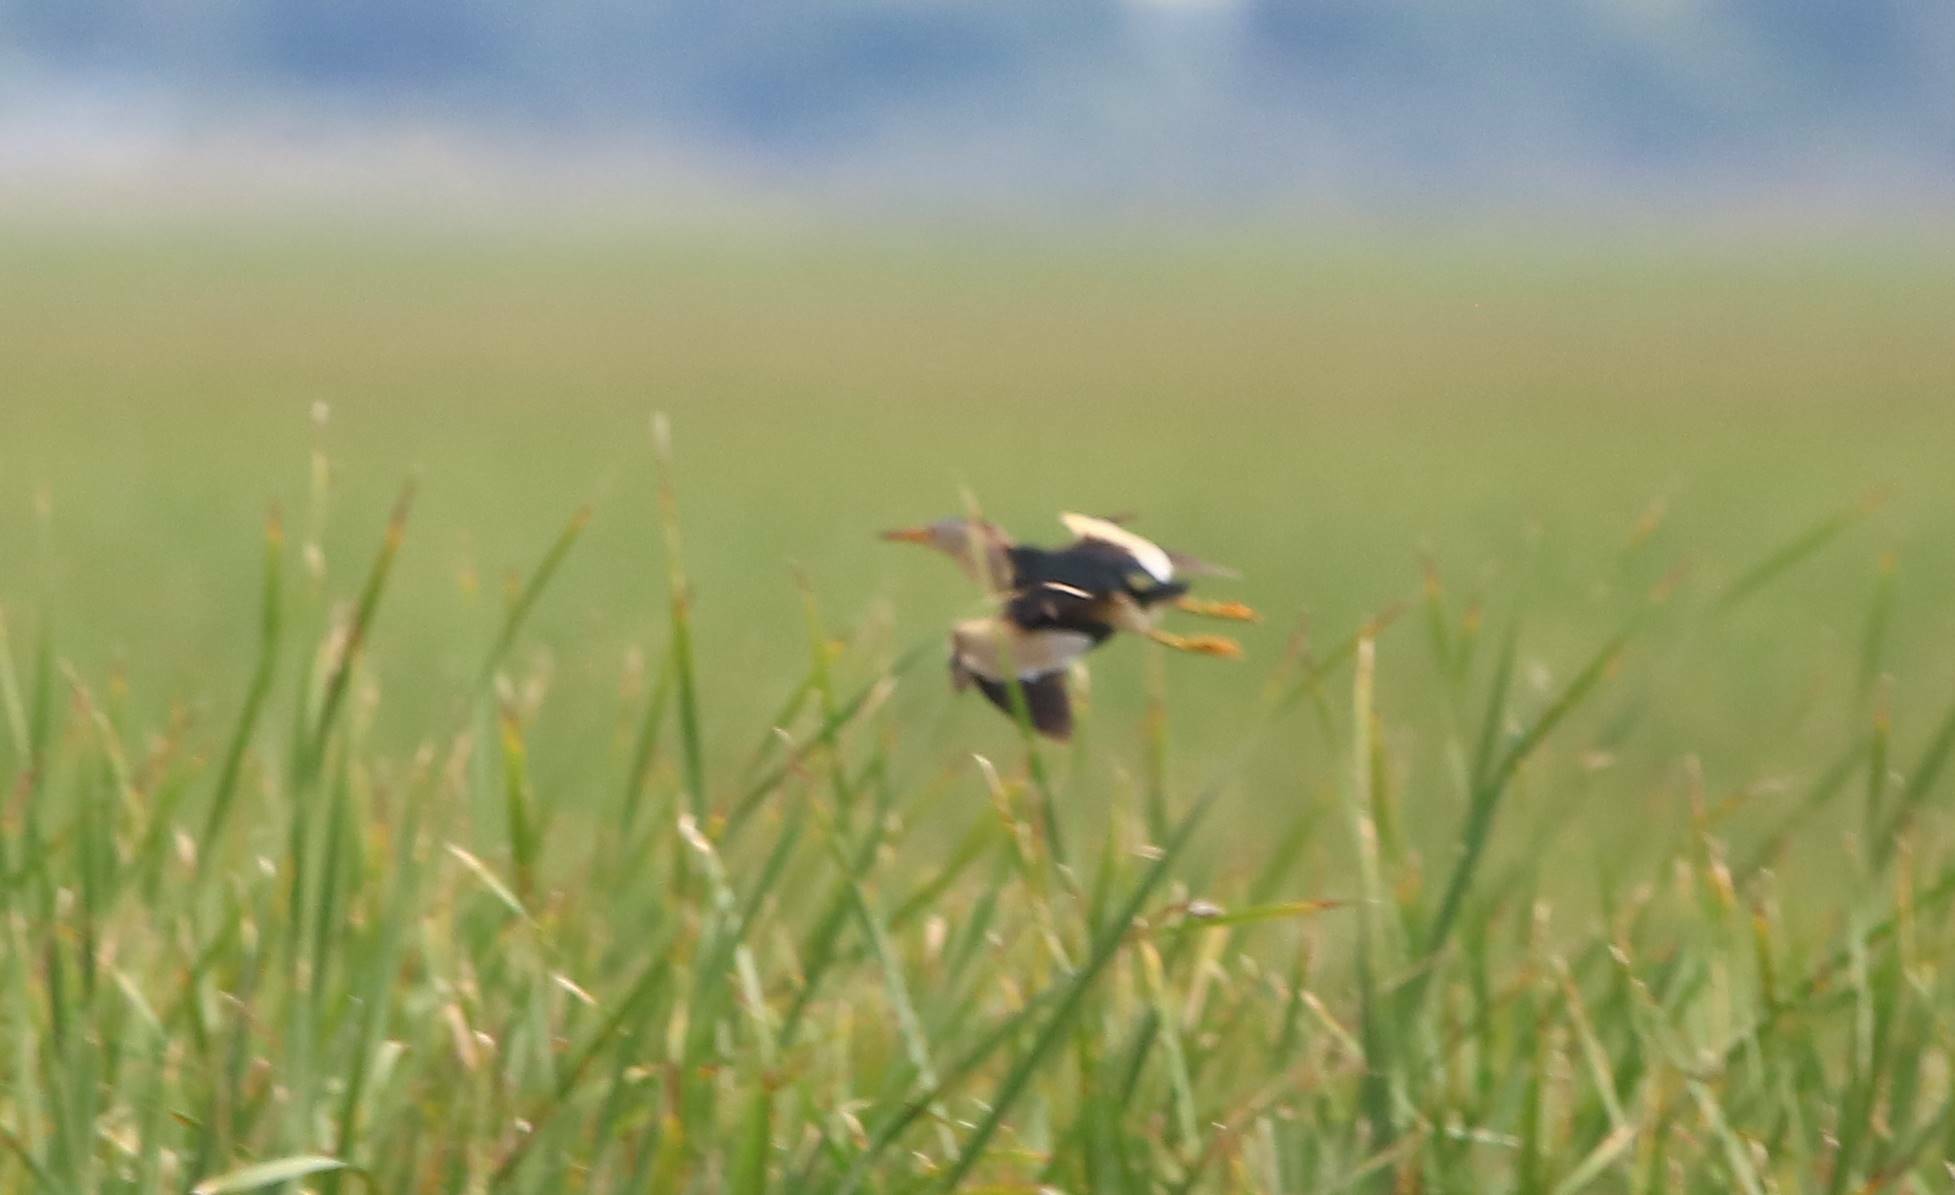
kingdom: Animalia
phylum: Chordata
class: Aves
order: Pelecaniformes
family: Ardeidae
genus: Ixobrychus
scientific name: Ixobrychus minutus
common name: Little bittern
